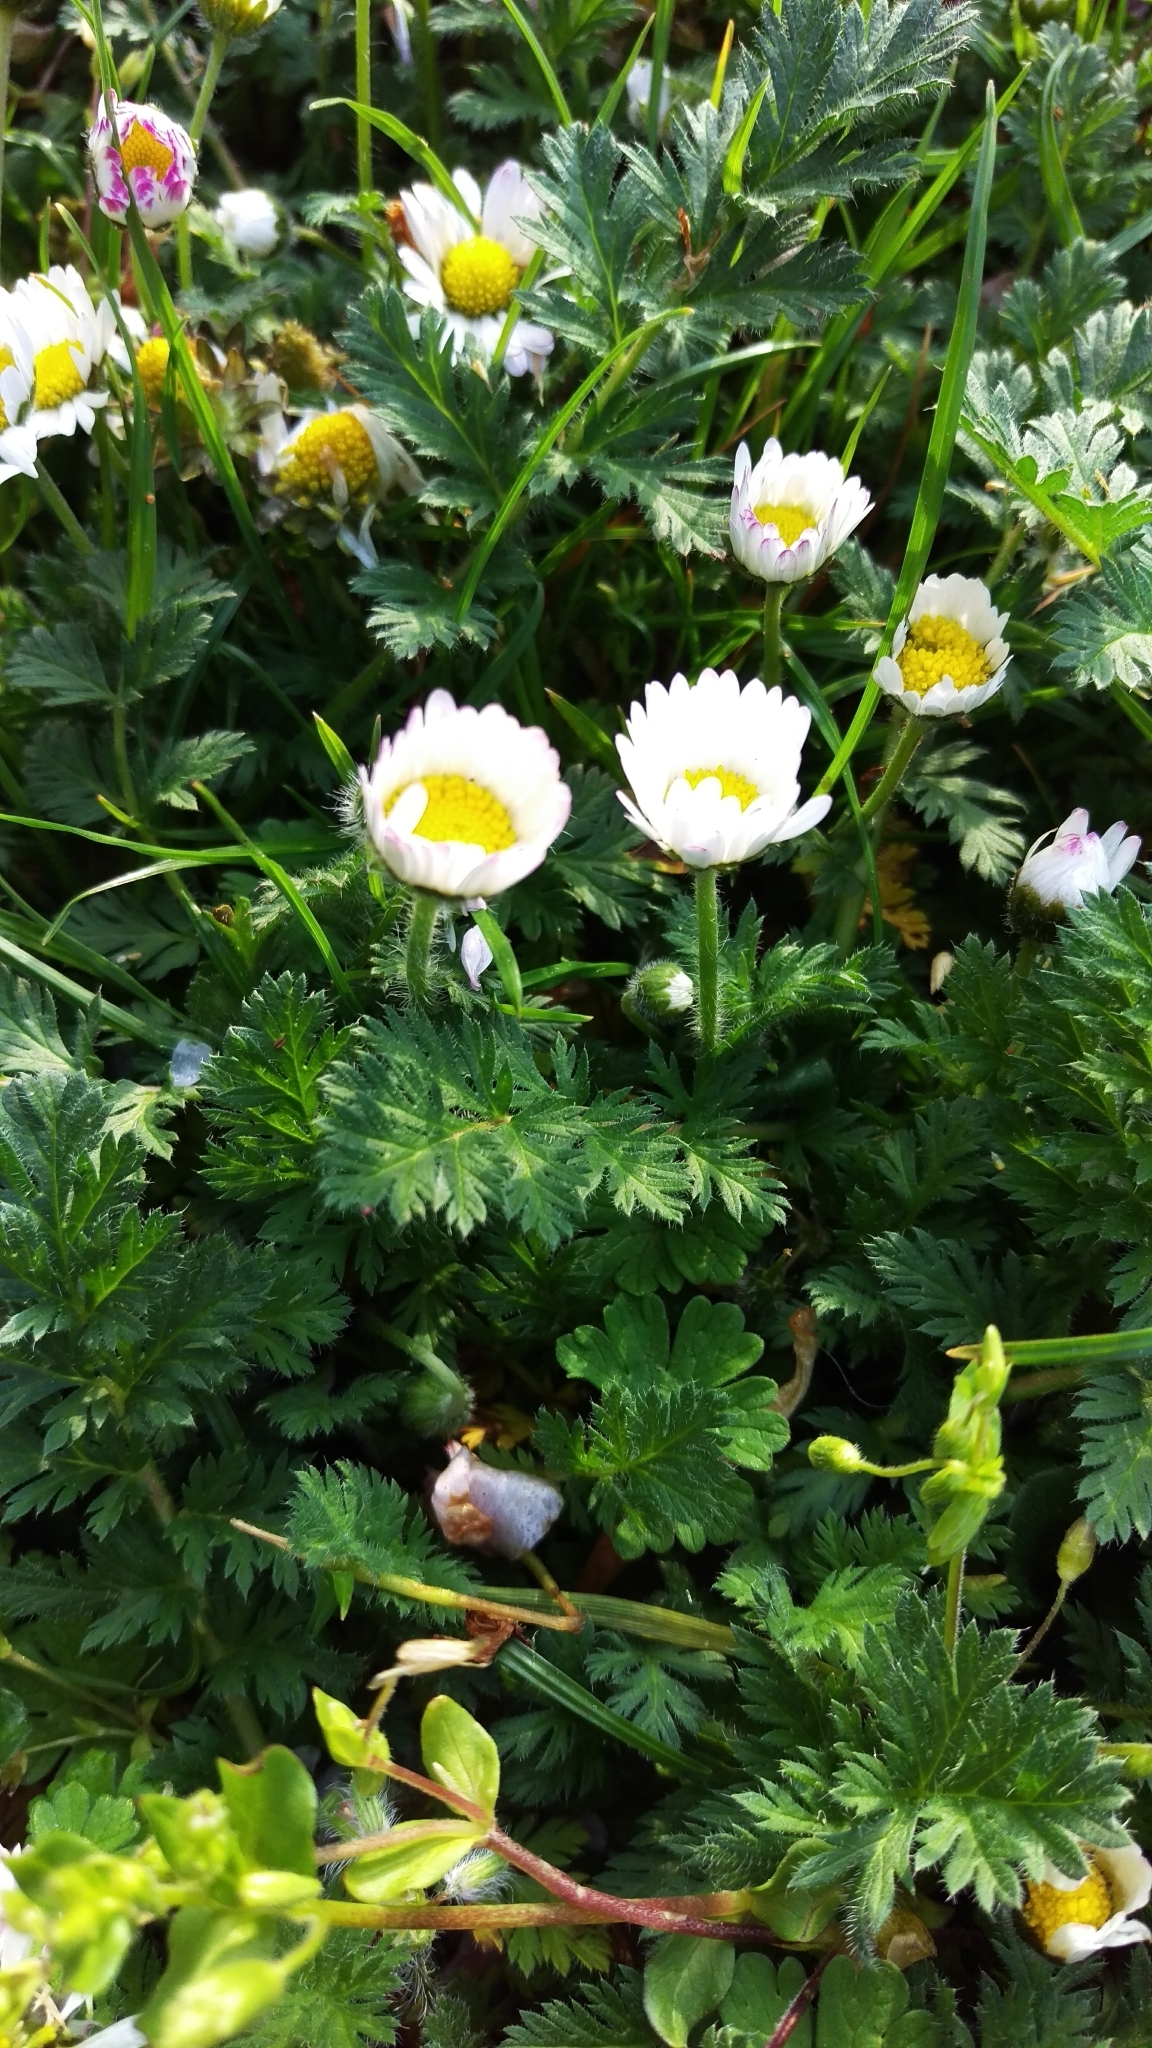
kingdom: Plantae
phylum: Tracheophyta
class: Magnoliopsida
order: Asterales
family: Asteraceae
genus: Bellis
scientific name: Bellis perennis
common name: Lawndaisy
